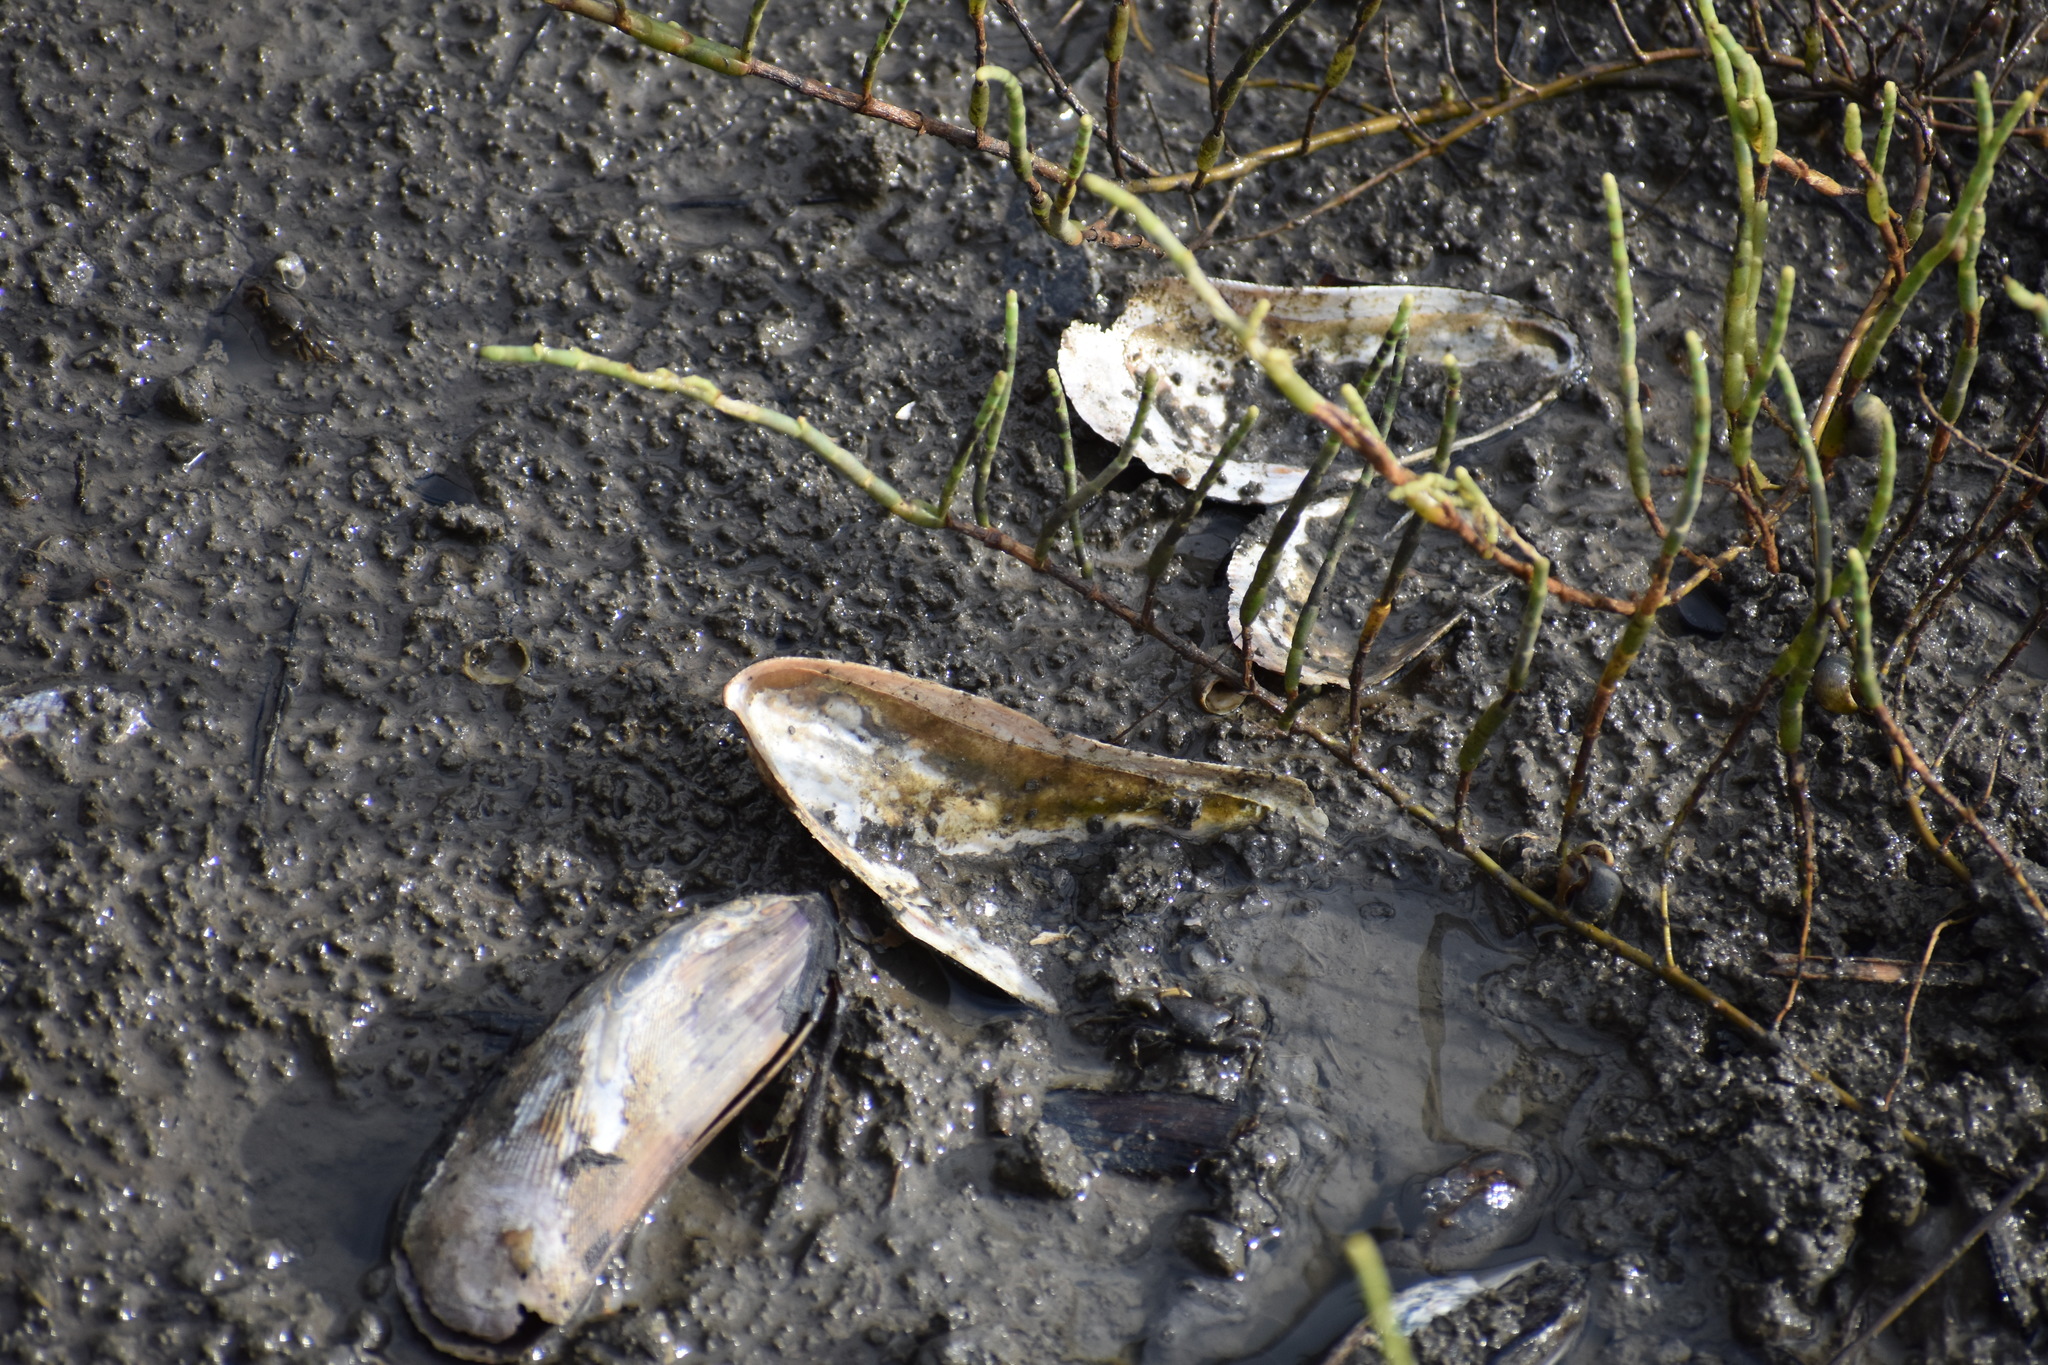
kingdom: Animalia
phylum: Mollusca
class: Bivalvia
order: Mytilida
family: Mytilidae
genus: Geukensia
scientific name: Geukensia demissa
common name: Ribbed mussel
